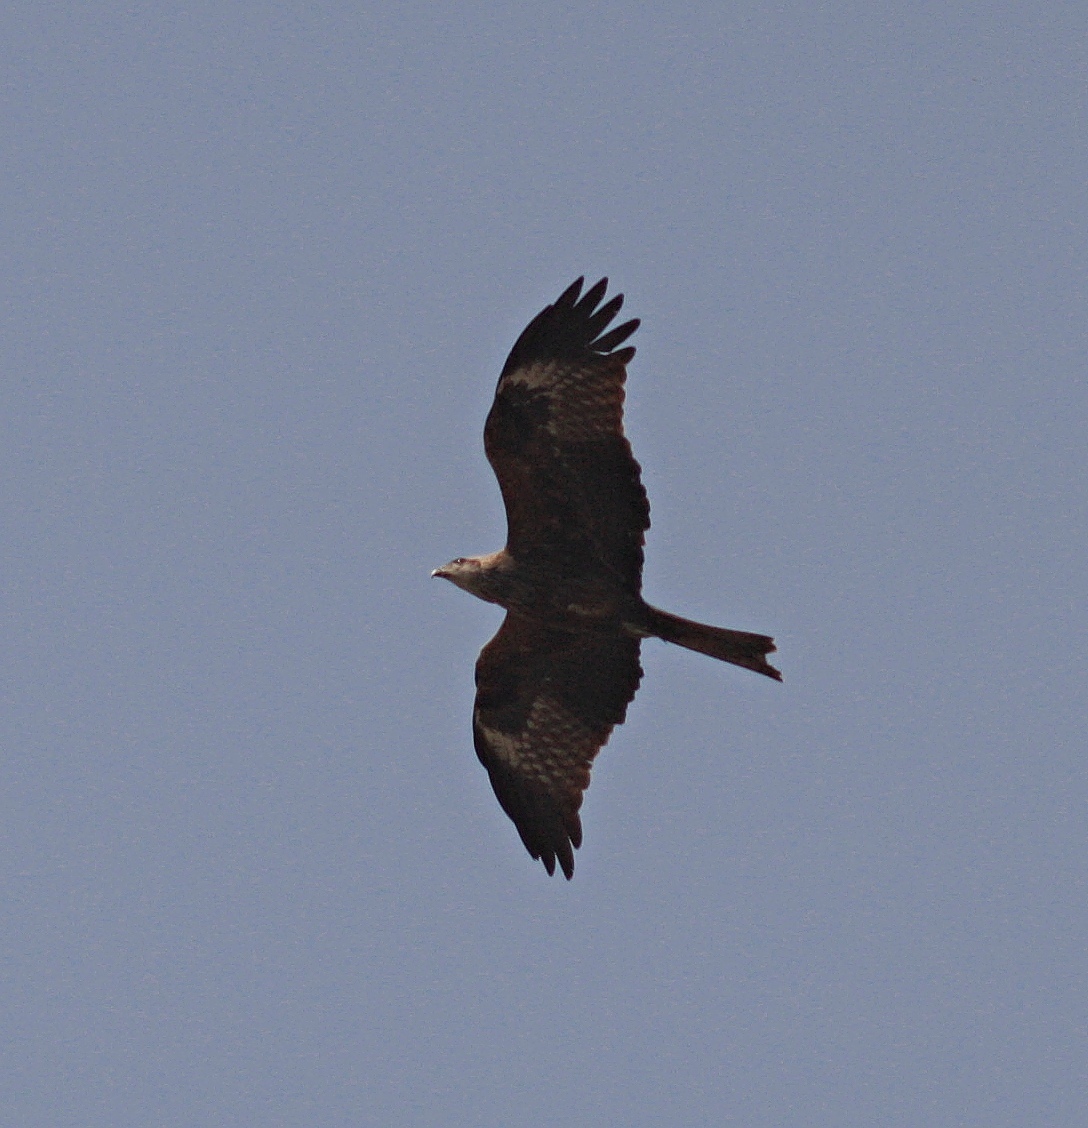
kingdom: Animalia
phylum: Chordata
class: Aves
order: Accipitriformes
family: Accipitridae
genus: Milvus
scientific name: Milvus migrans
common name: Black kite
